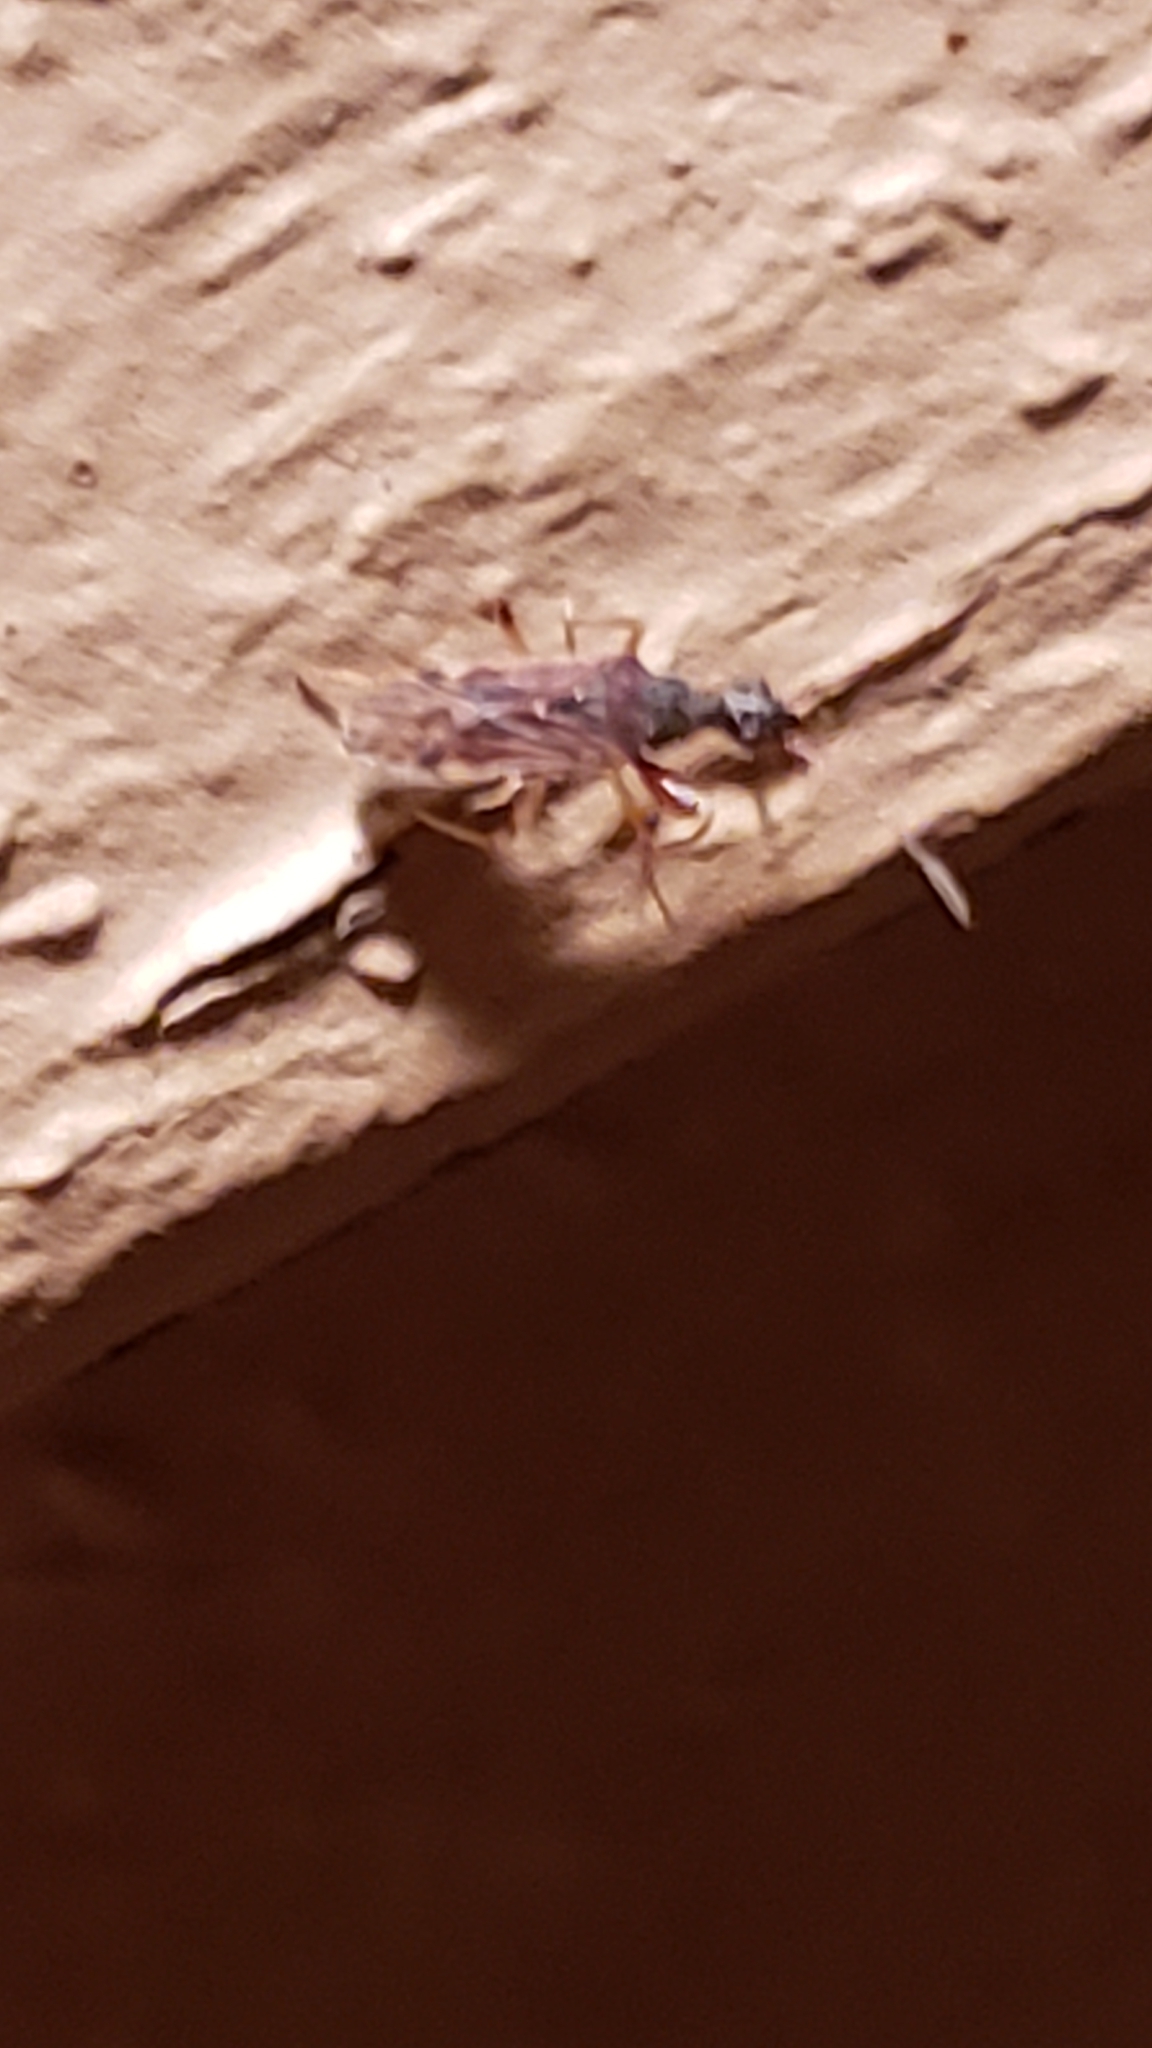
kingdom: Animalia
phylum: Arthropoda
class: Insecta
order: Hemiptera
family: Rhyparochromidae
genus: Heraeus
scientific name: Heraeus plebejus
